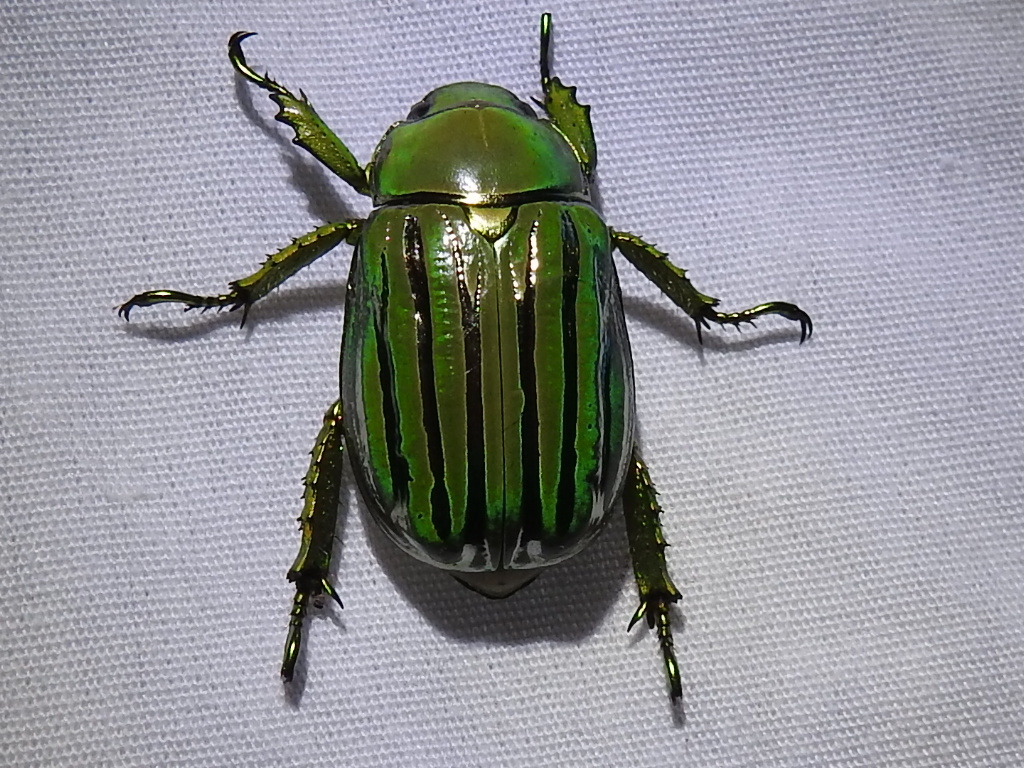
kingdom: Animalia
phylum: Arthropoda
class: Insecta
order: Coleoptera
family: Scarabaeidae
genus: Chrysina
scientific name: Chrysina gloriosa
